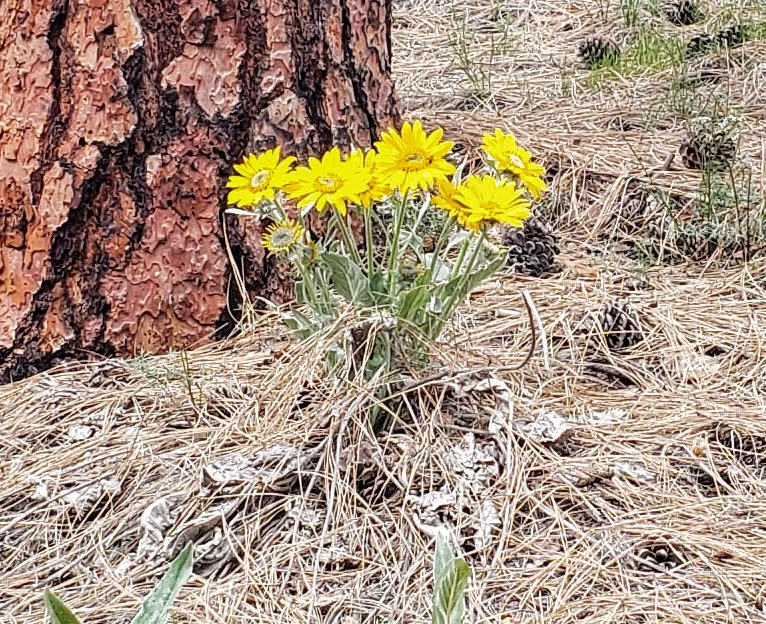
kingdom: Plantae
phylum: Tracheophyta
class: Magnoliopsida
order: Asterales
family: Asteraceae
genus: Wyethia
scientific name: Wyethia sagittata
